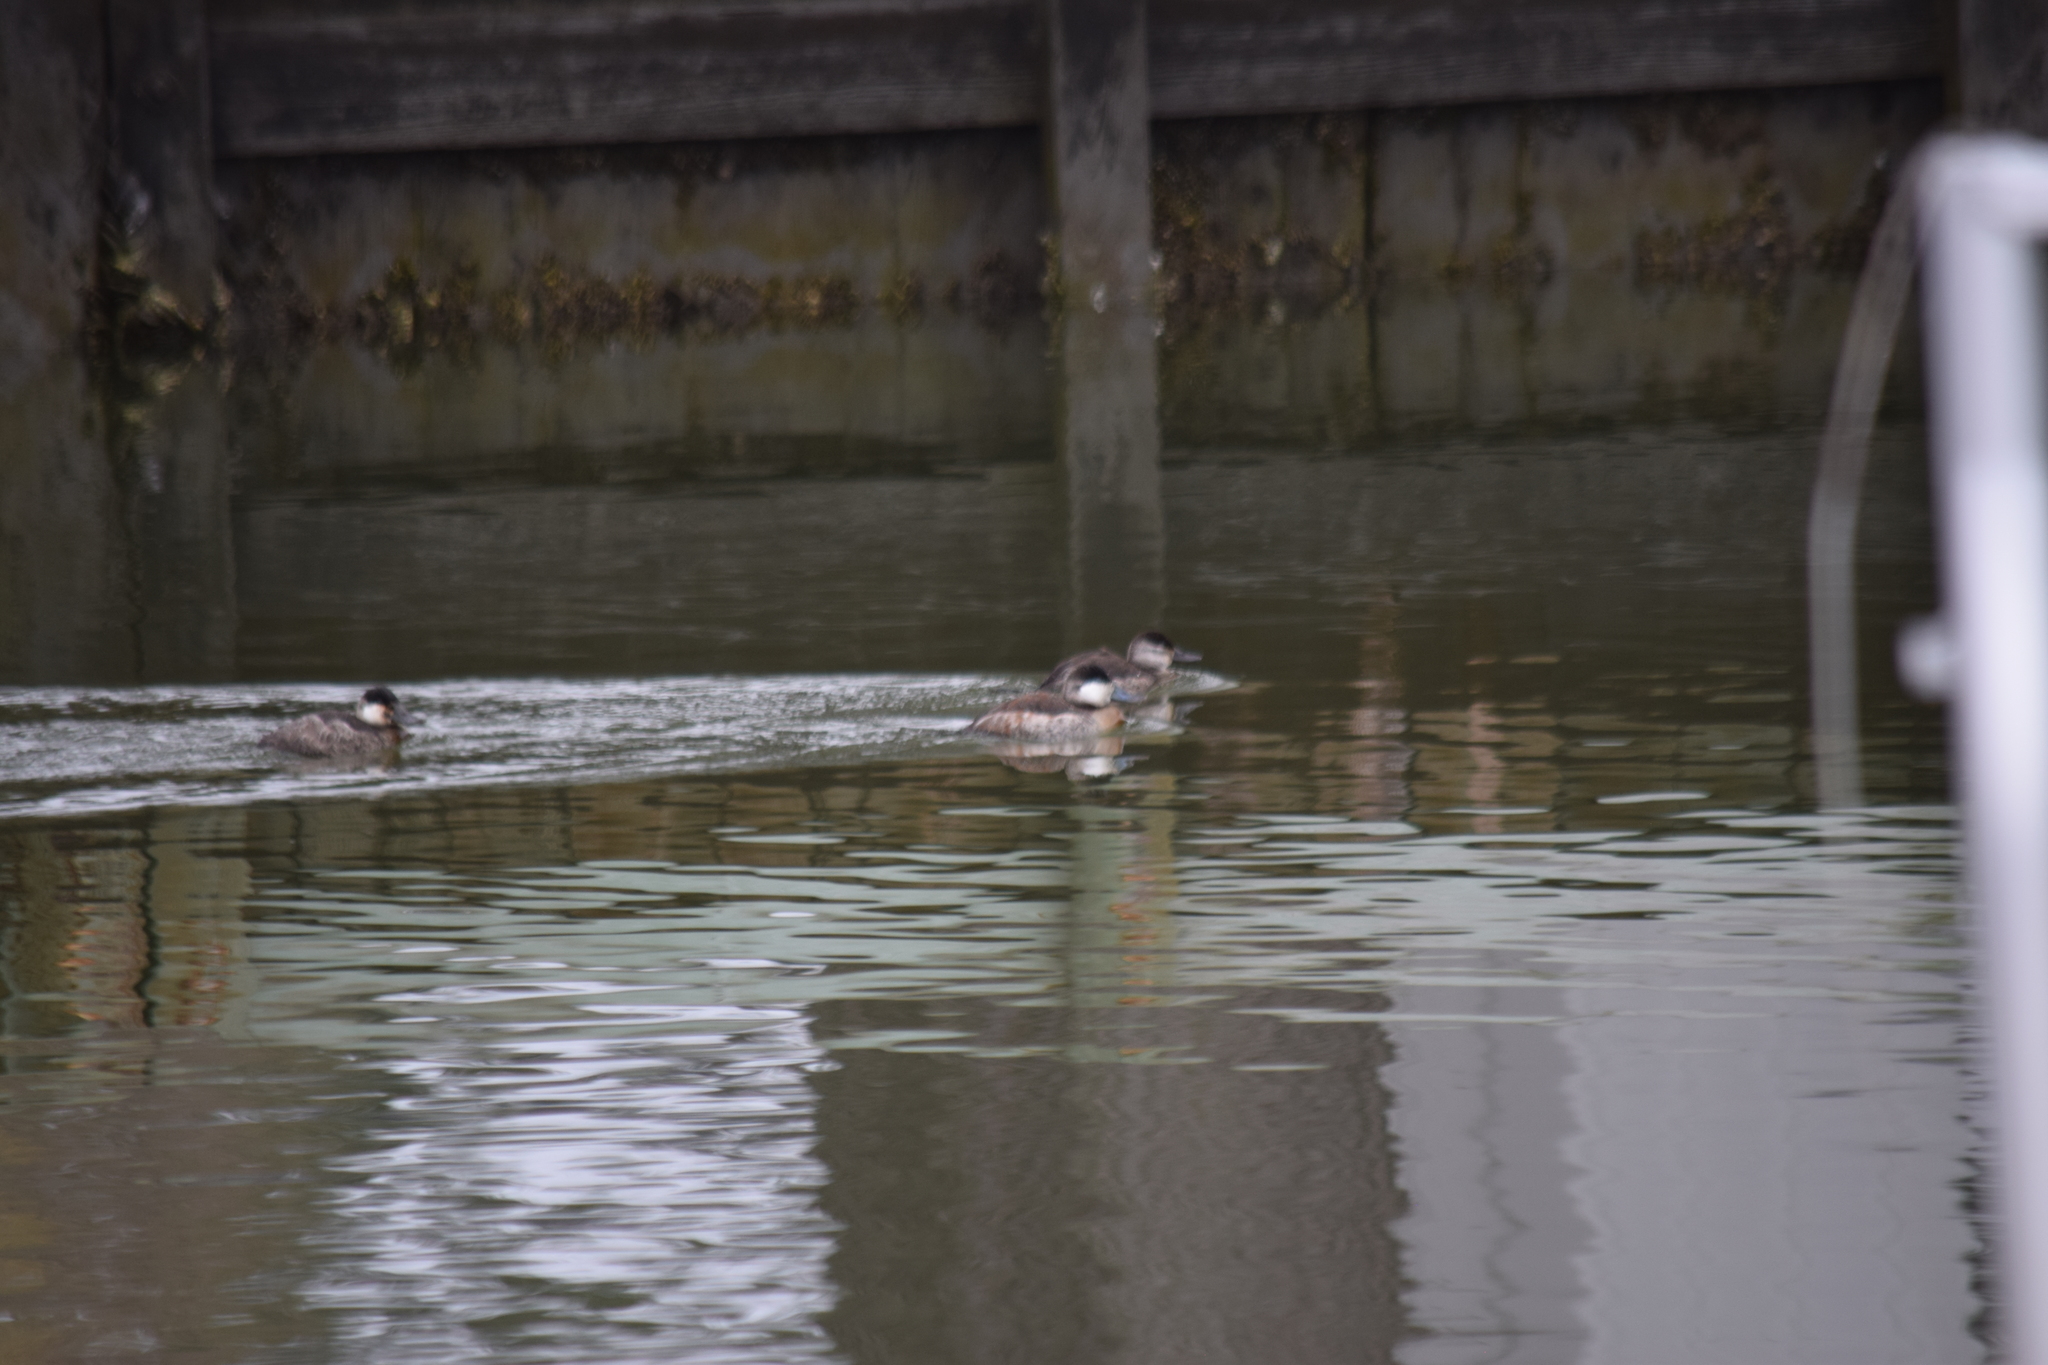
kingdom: Animalia
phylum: Chordata
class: Aves
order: Anseriformes
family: Anatidae
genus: Oxyura
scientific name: Oxyura jamaicensis
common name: Ruddy duck
